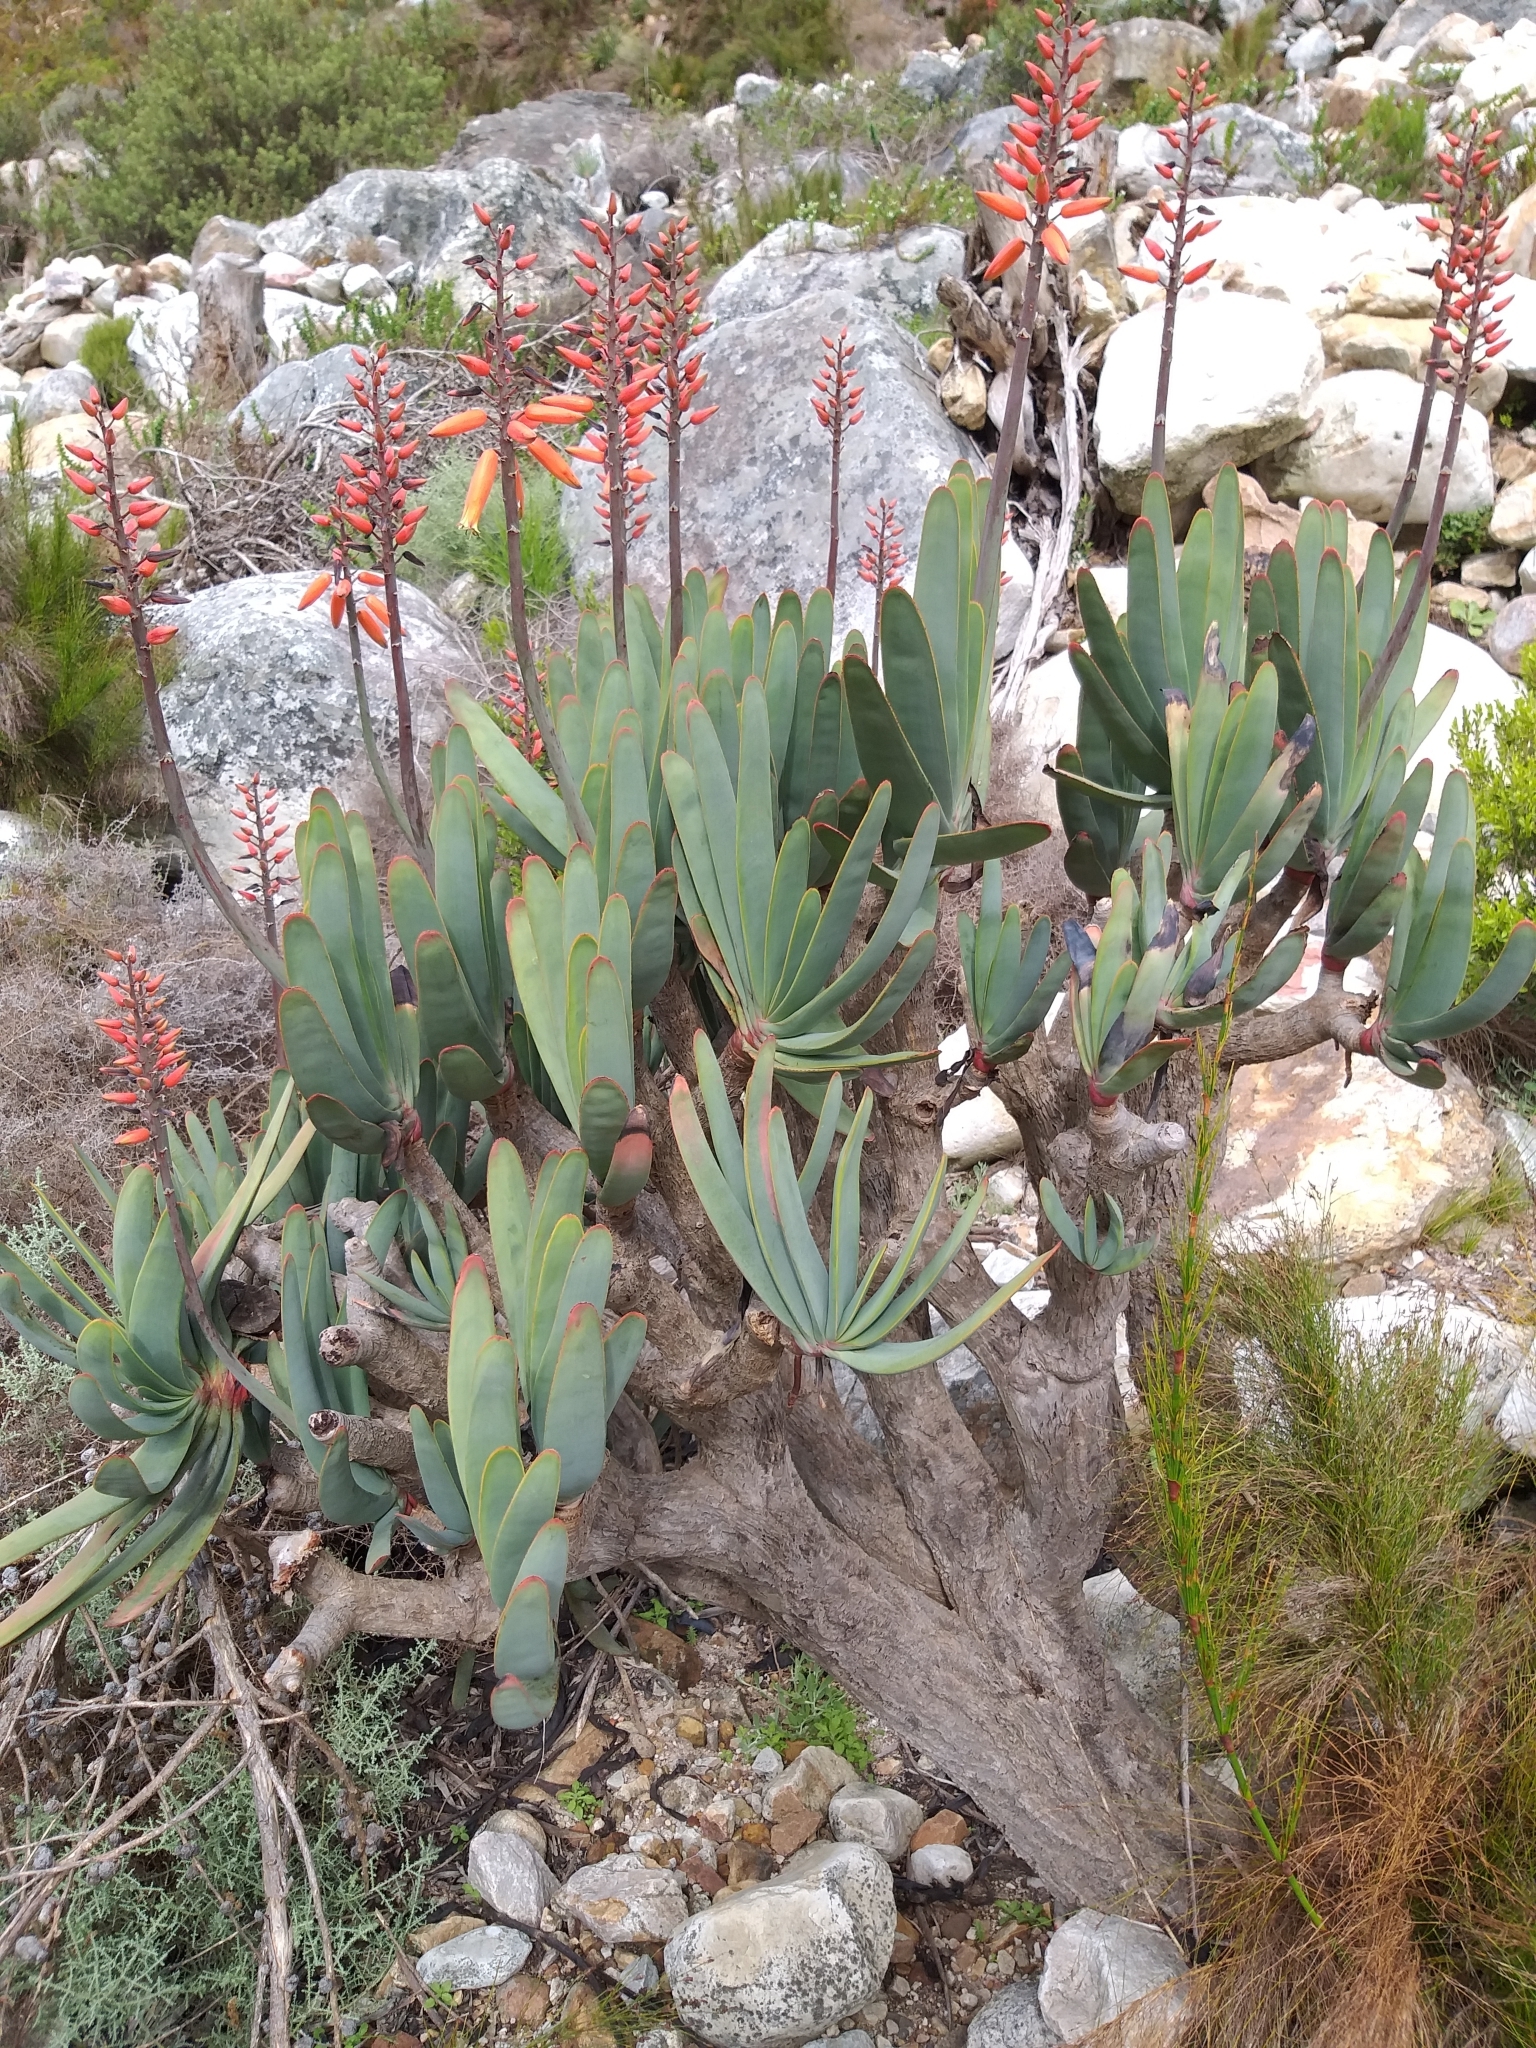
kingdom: Plantae
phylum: Tracheophyta
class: Liliopsida
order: Asparagales
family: Asphodelaceae
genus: Kumara
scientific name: Kumara plicatilis
